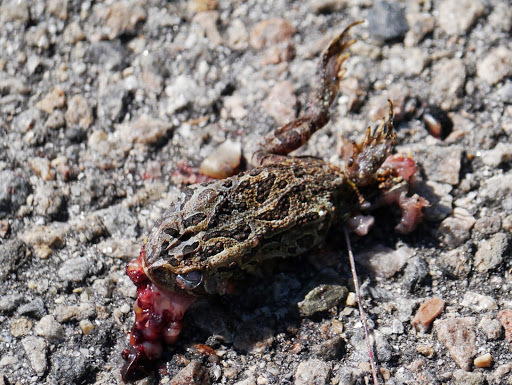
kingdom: Animalia
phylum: Chordata
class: Amphibia
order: Anura
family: Bufonidae
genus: Anaxyrus
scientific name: Anaxyrus fowleri
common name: Fowler's toad
